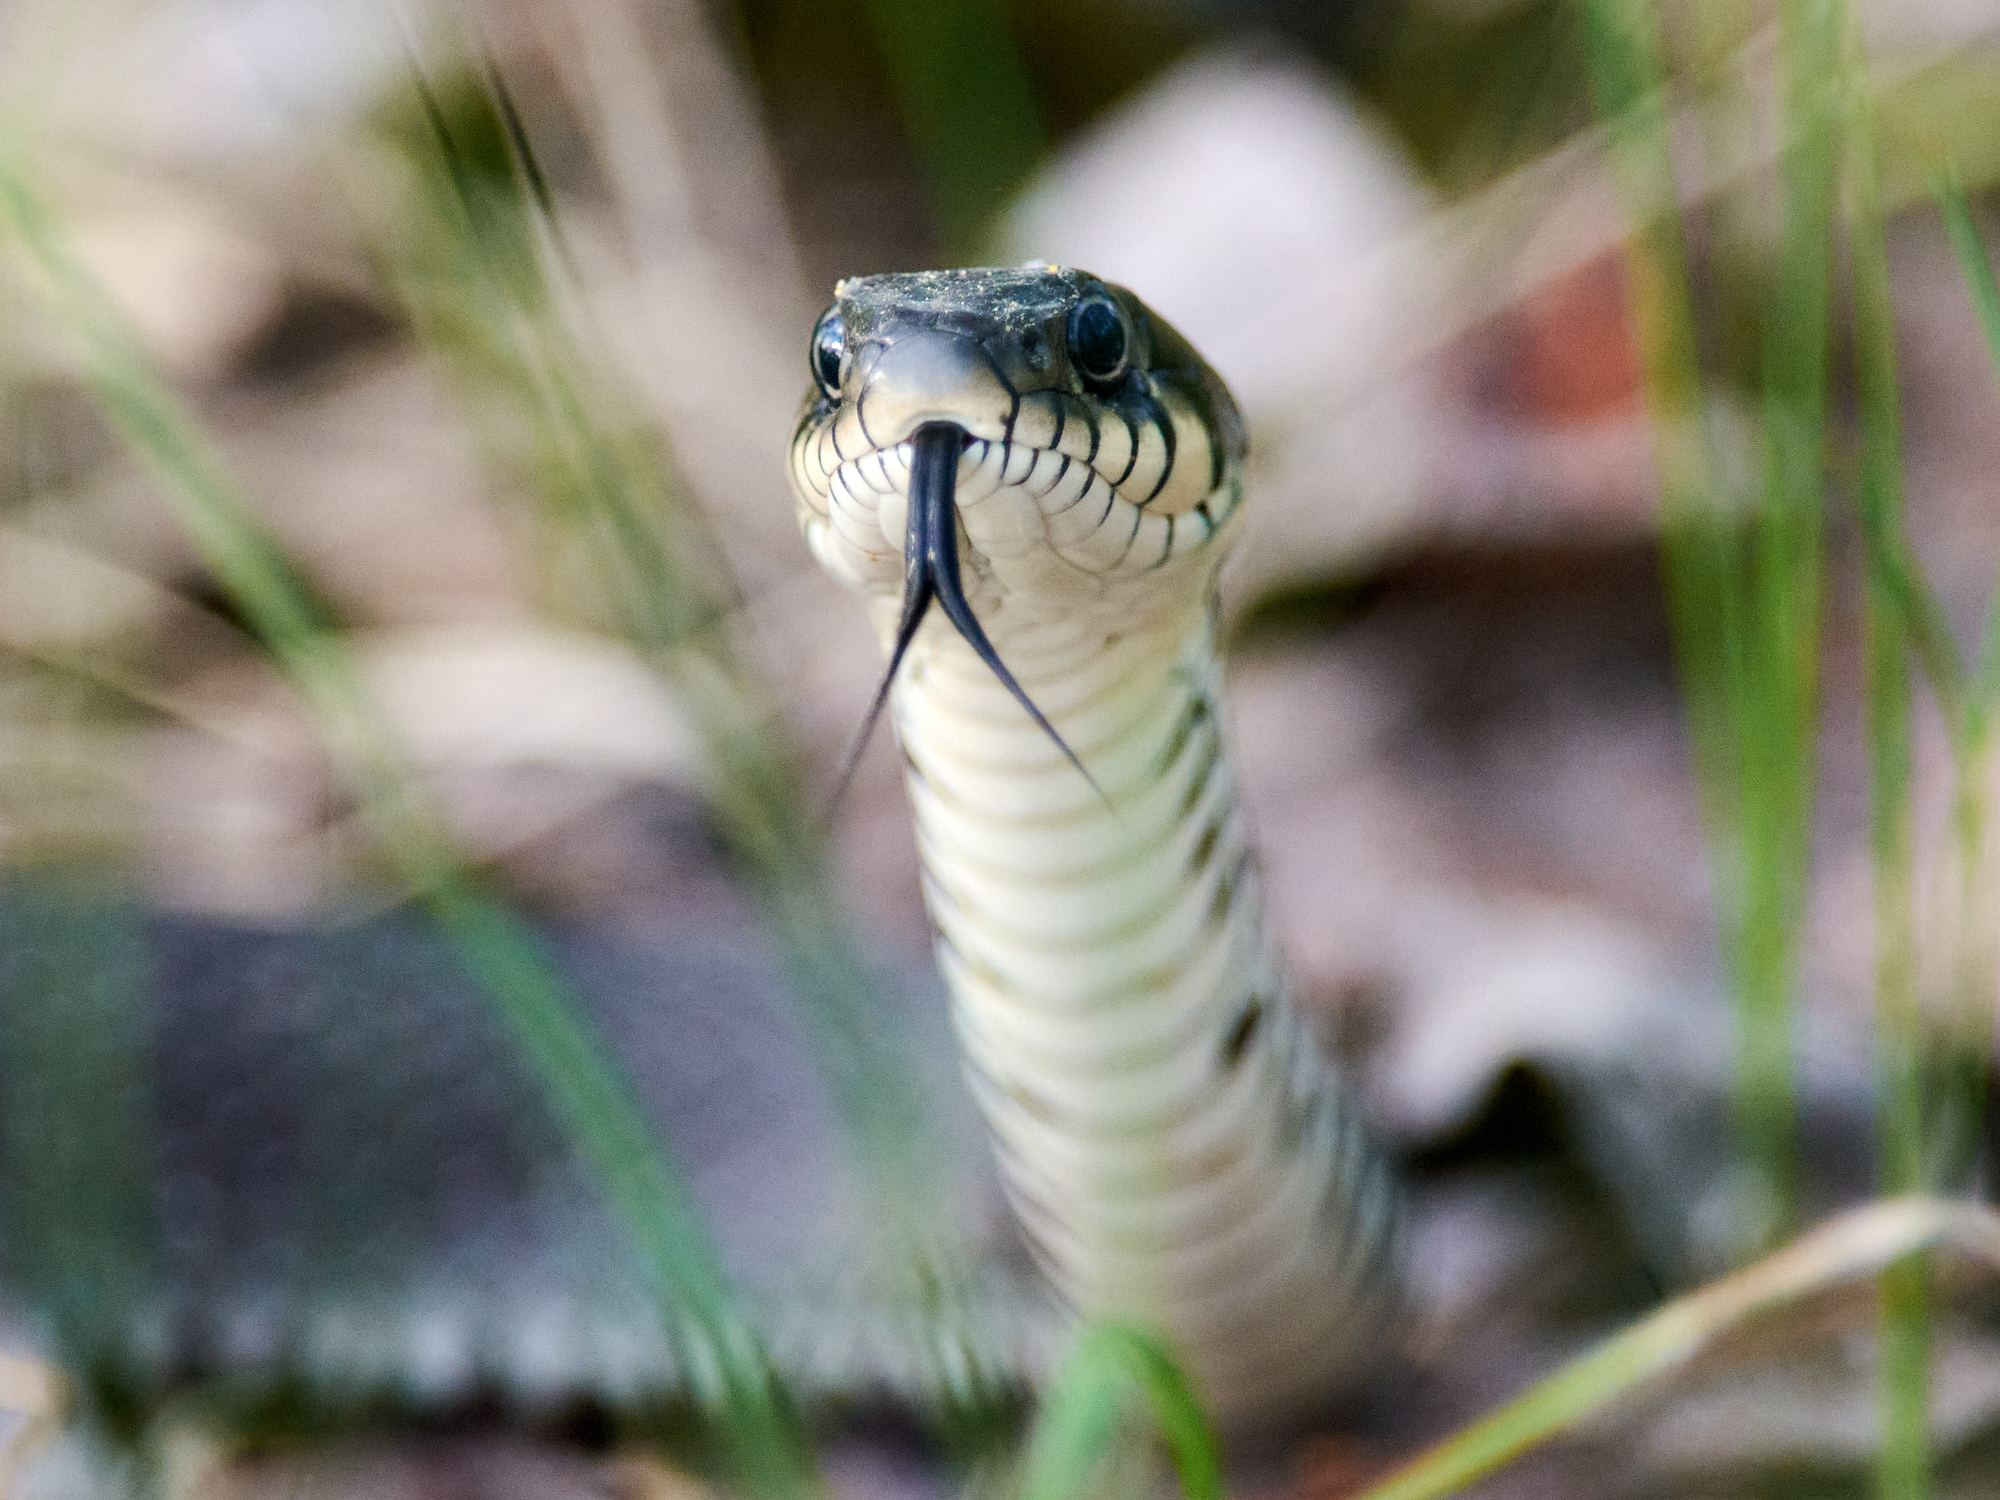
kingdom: Animalia
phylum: Chordata
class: Squamata
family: Colubridae
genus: Natrix
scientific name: Natrix natrix
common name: Grass snake
